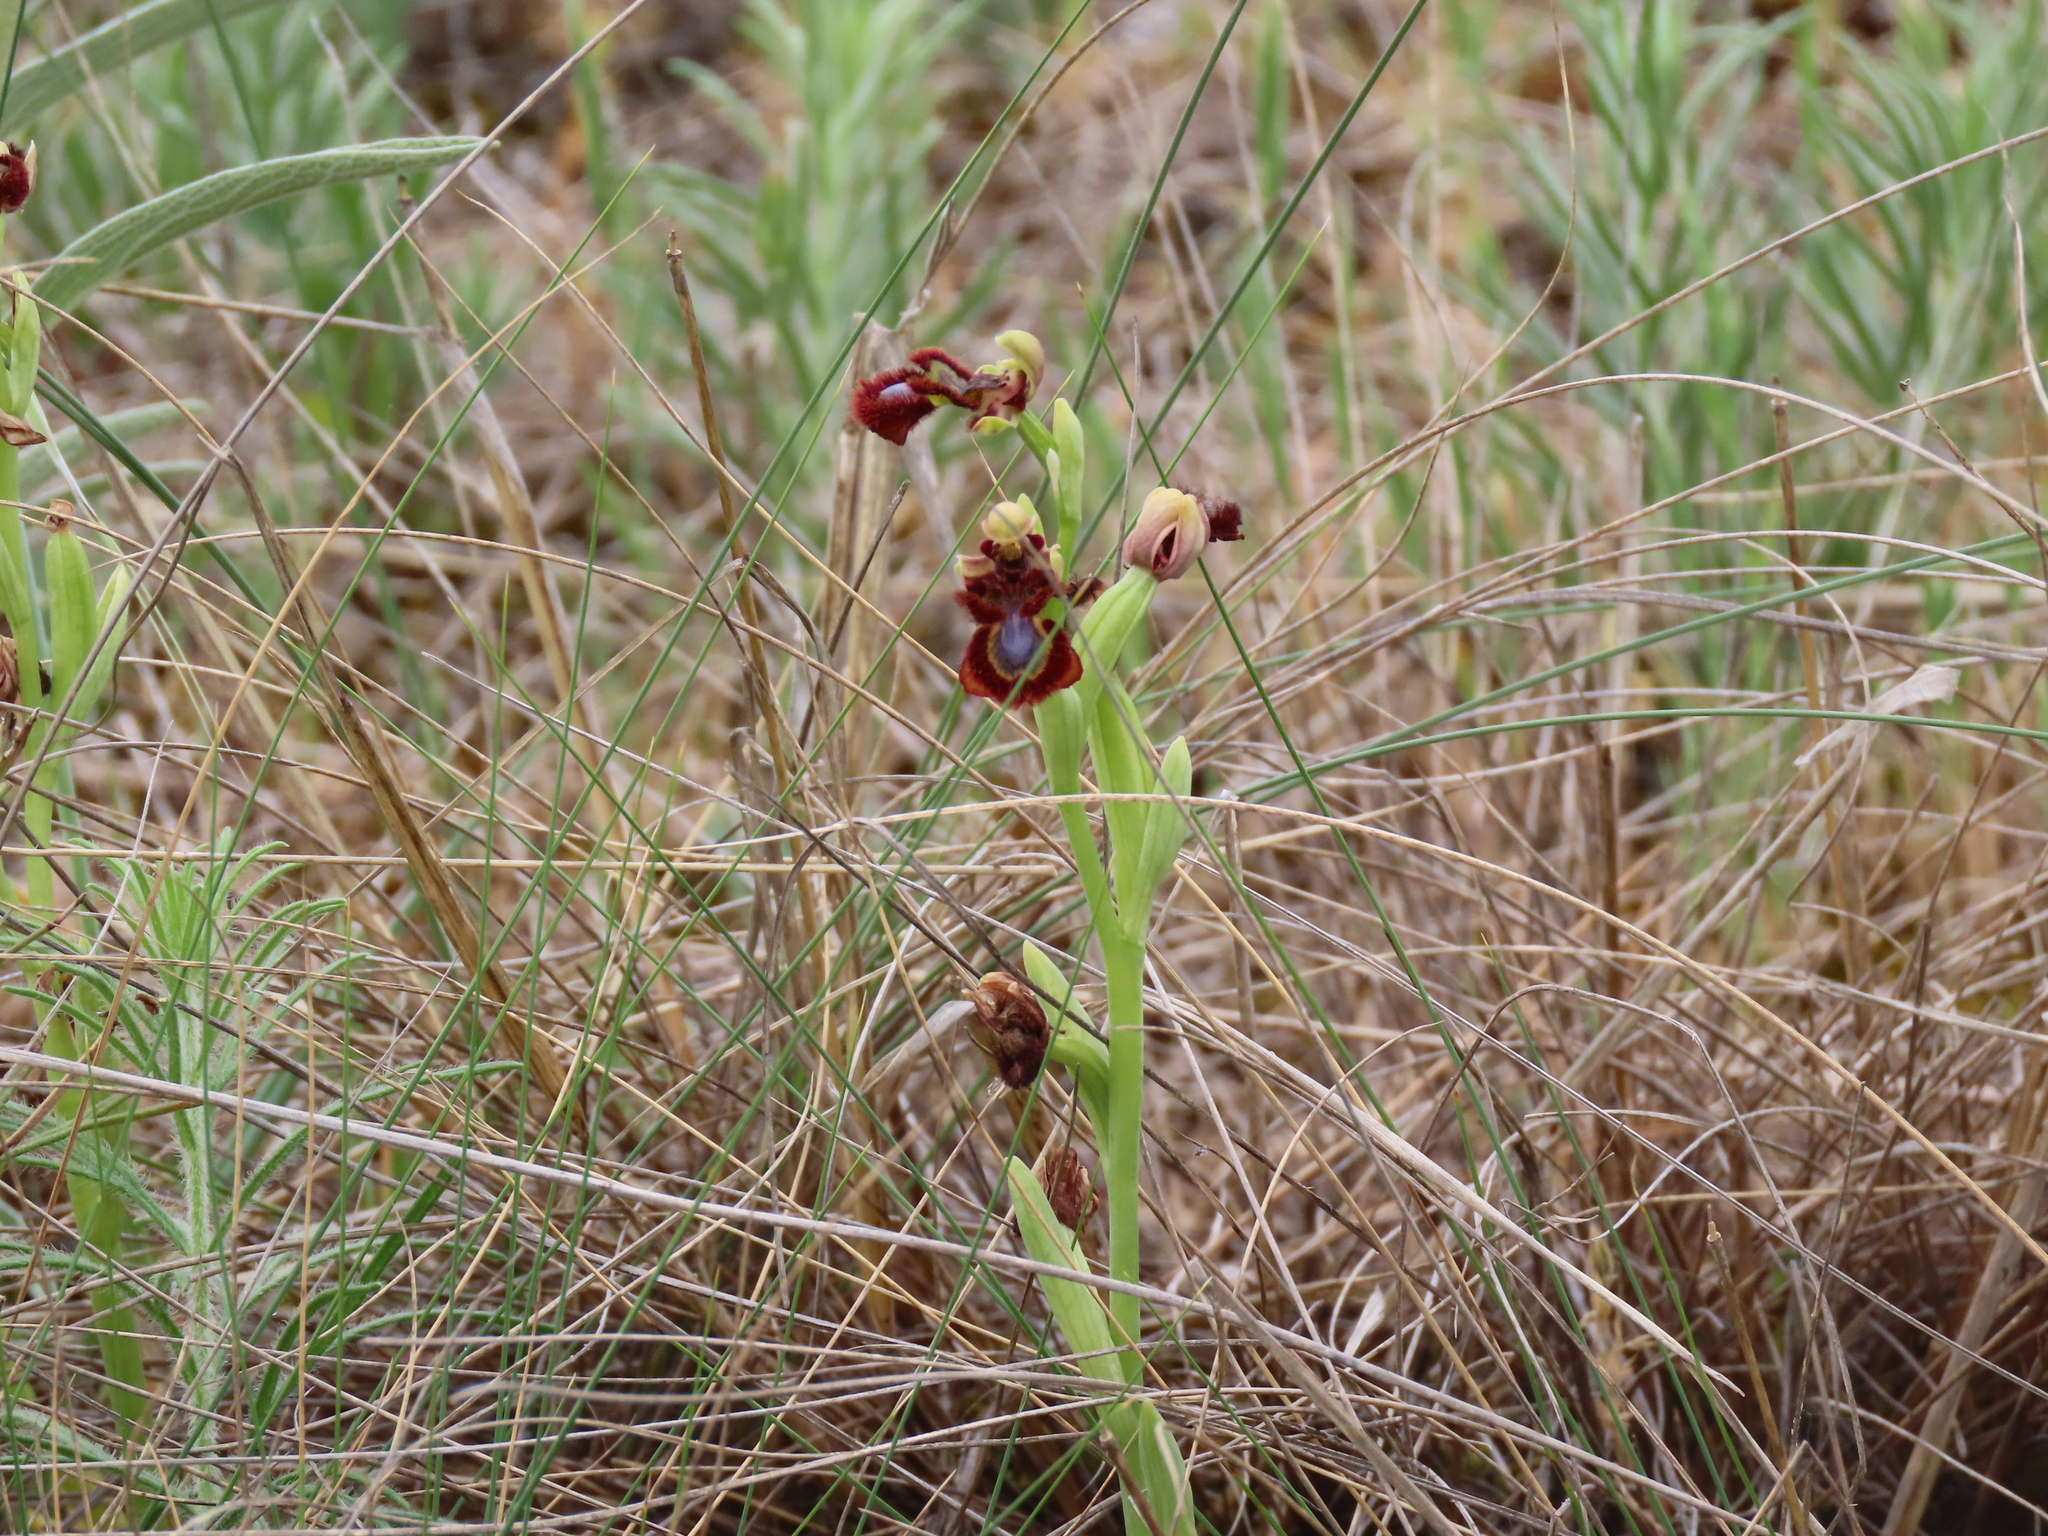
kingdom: Plantae
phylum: Tracheophyta
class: Liliopsida
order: Asparagales
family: Orchidaceae
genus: Ophrys
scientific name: Ophrys speculum
